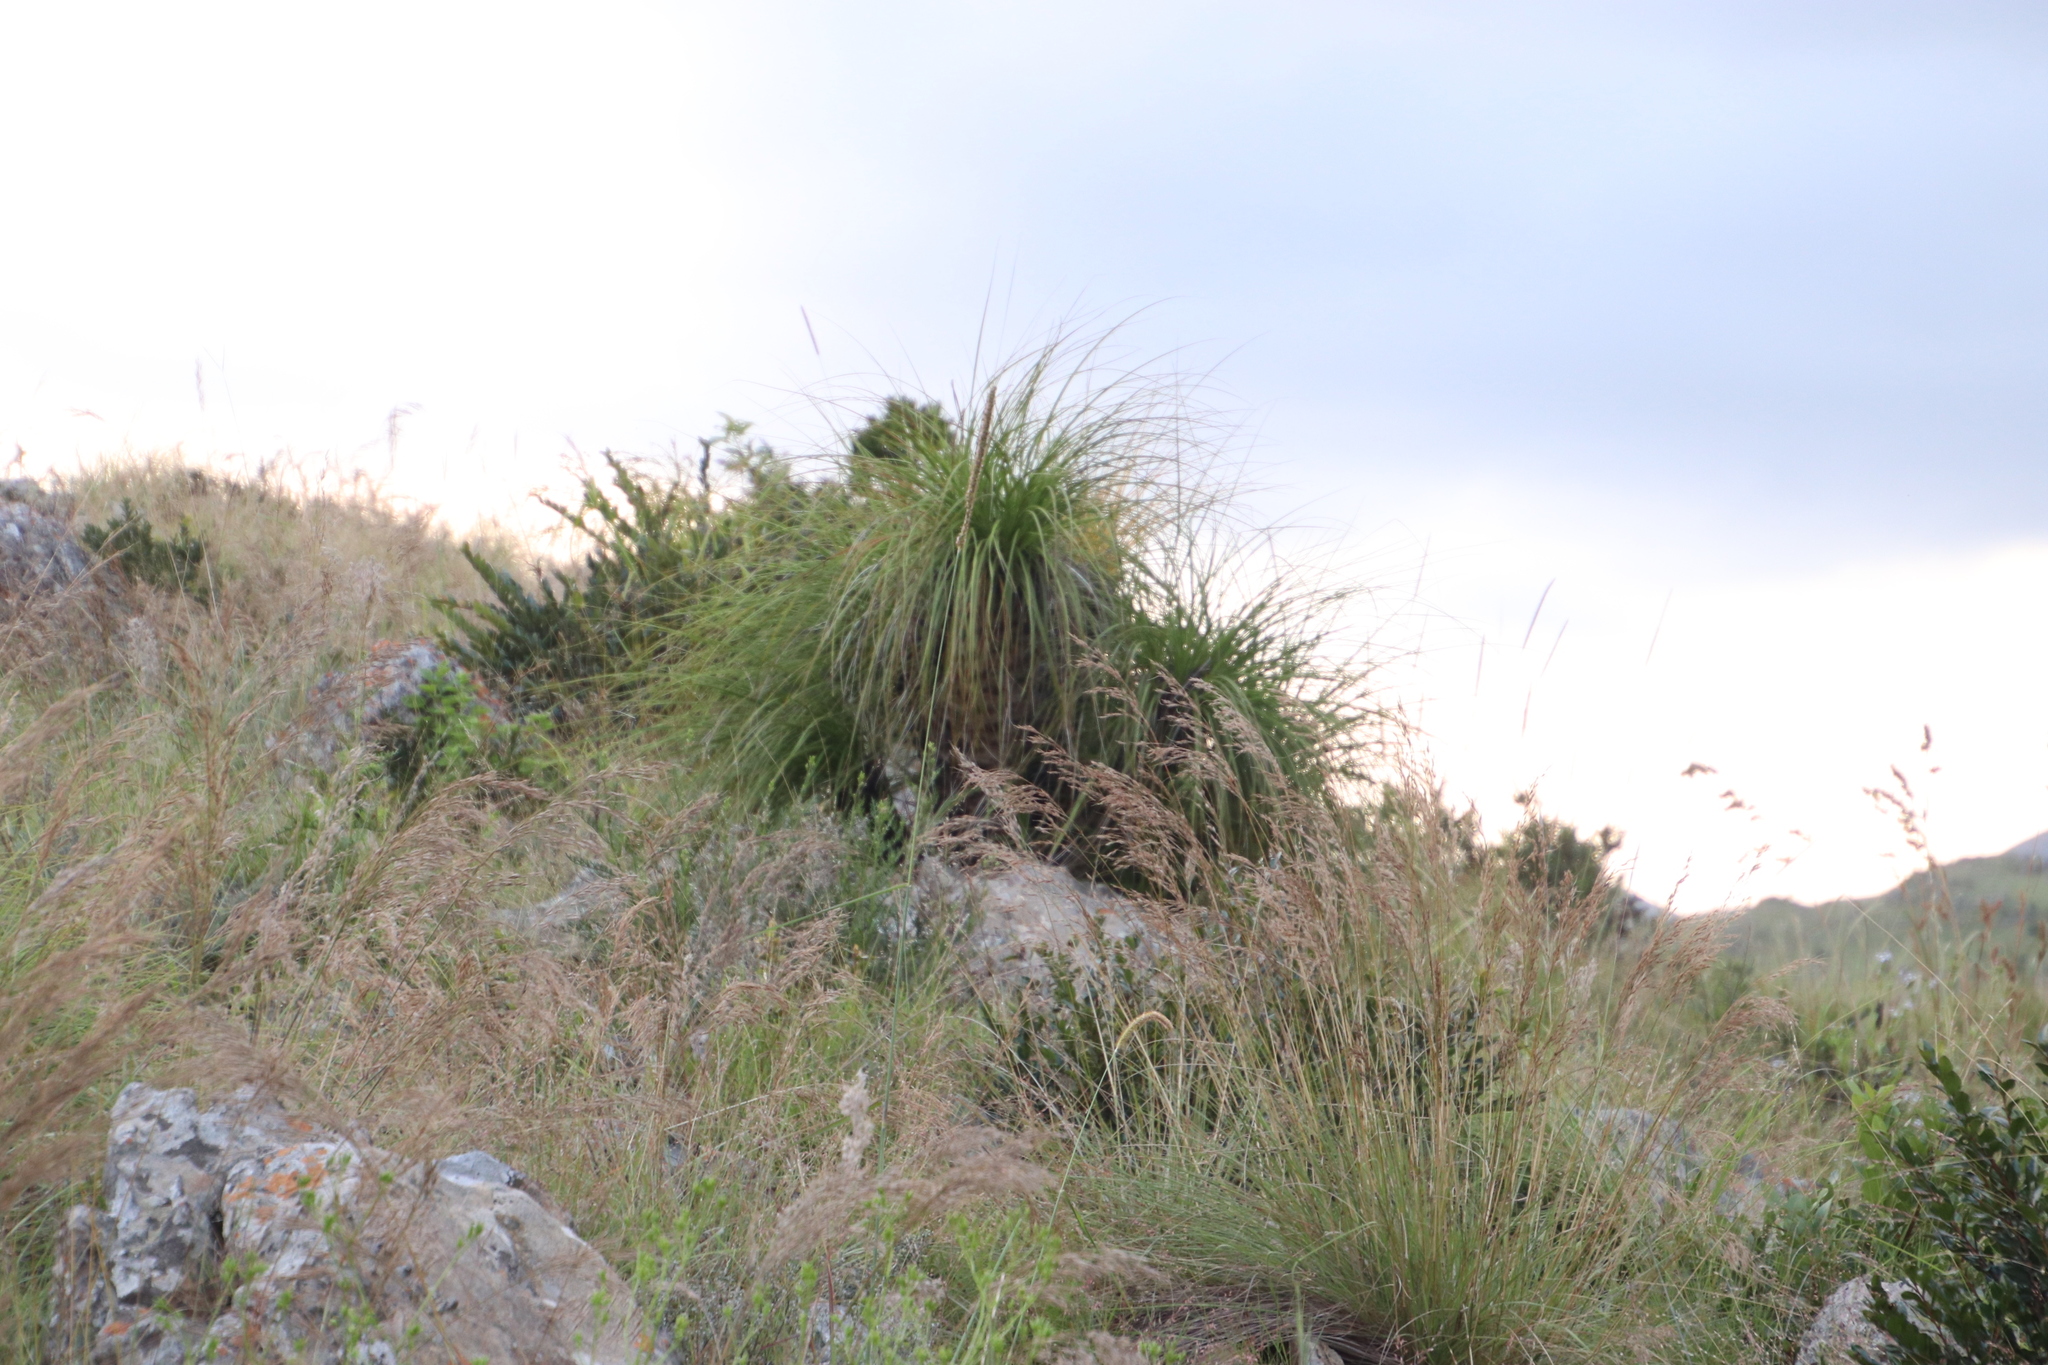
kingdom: Plantae
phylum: Tracheophyta
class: Liliopsida
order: Pandanales
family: Velloziaceae
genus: Xerophyta
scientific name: Xerophyta retinervis
